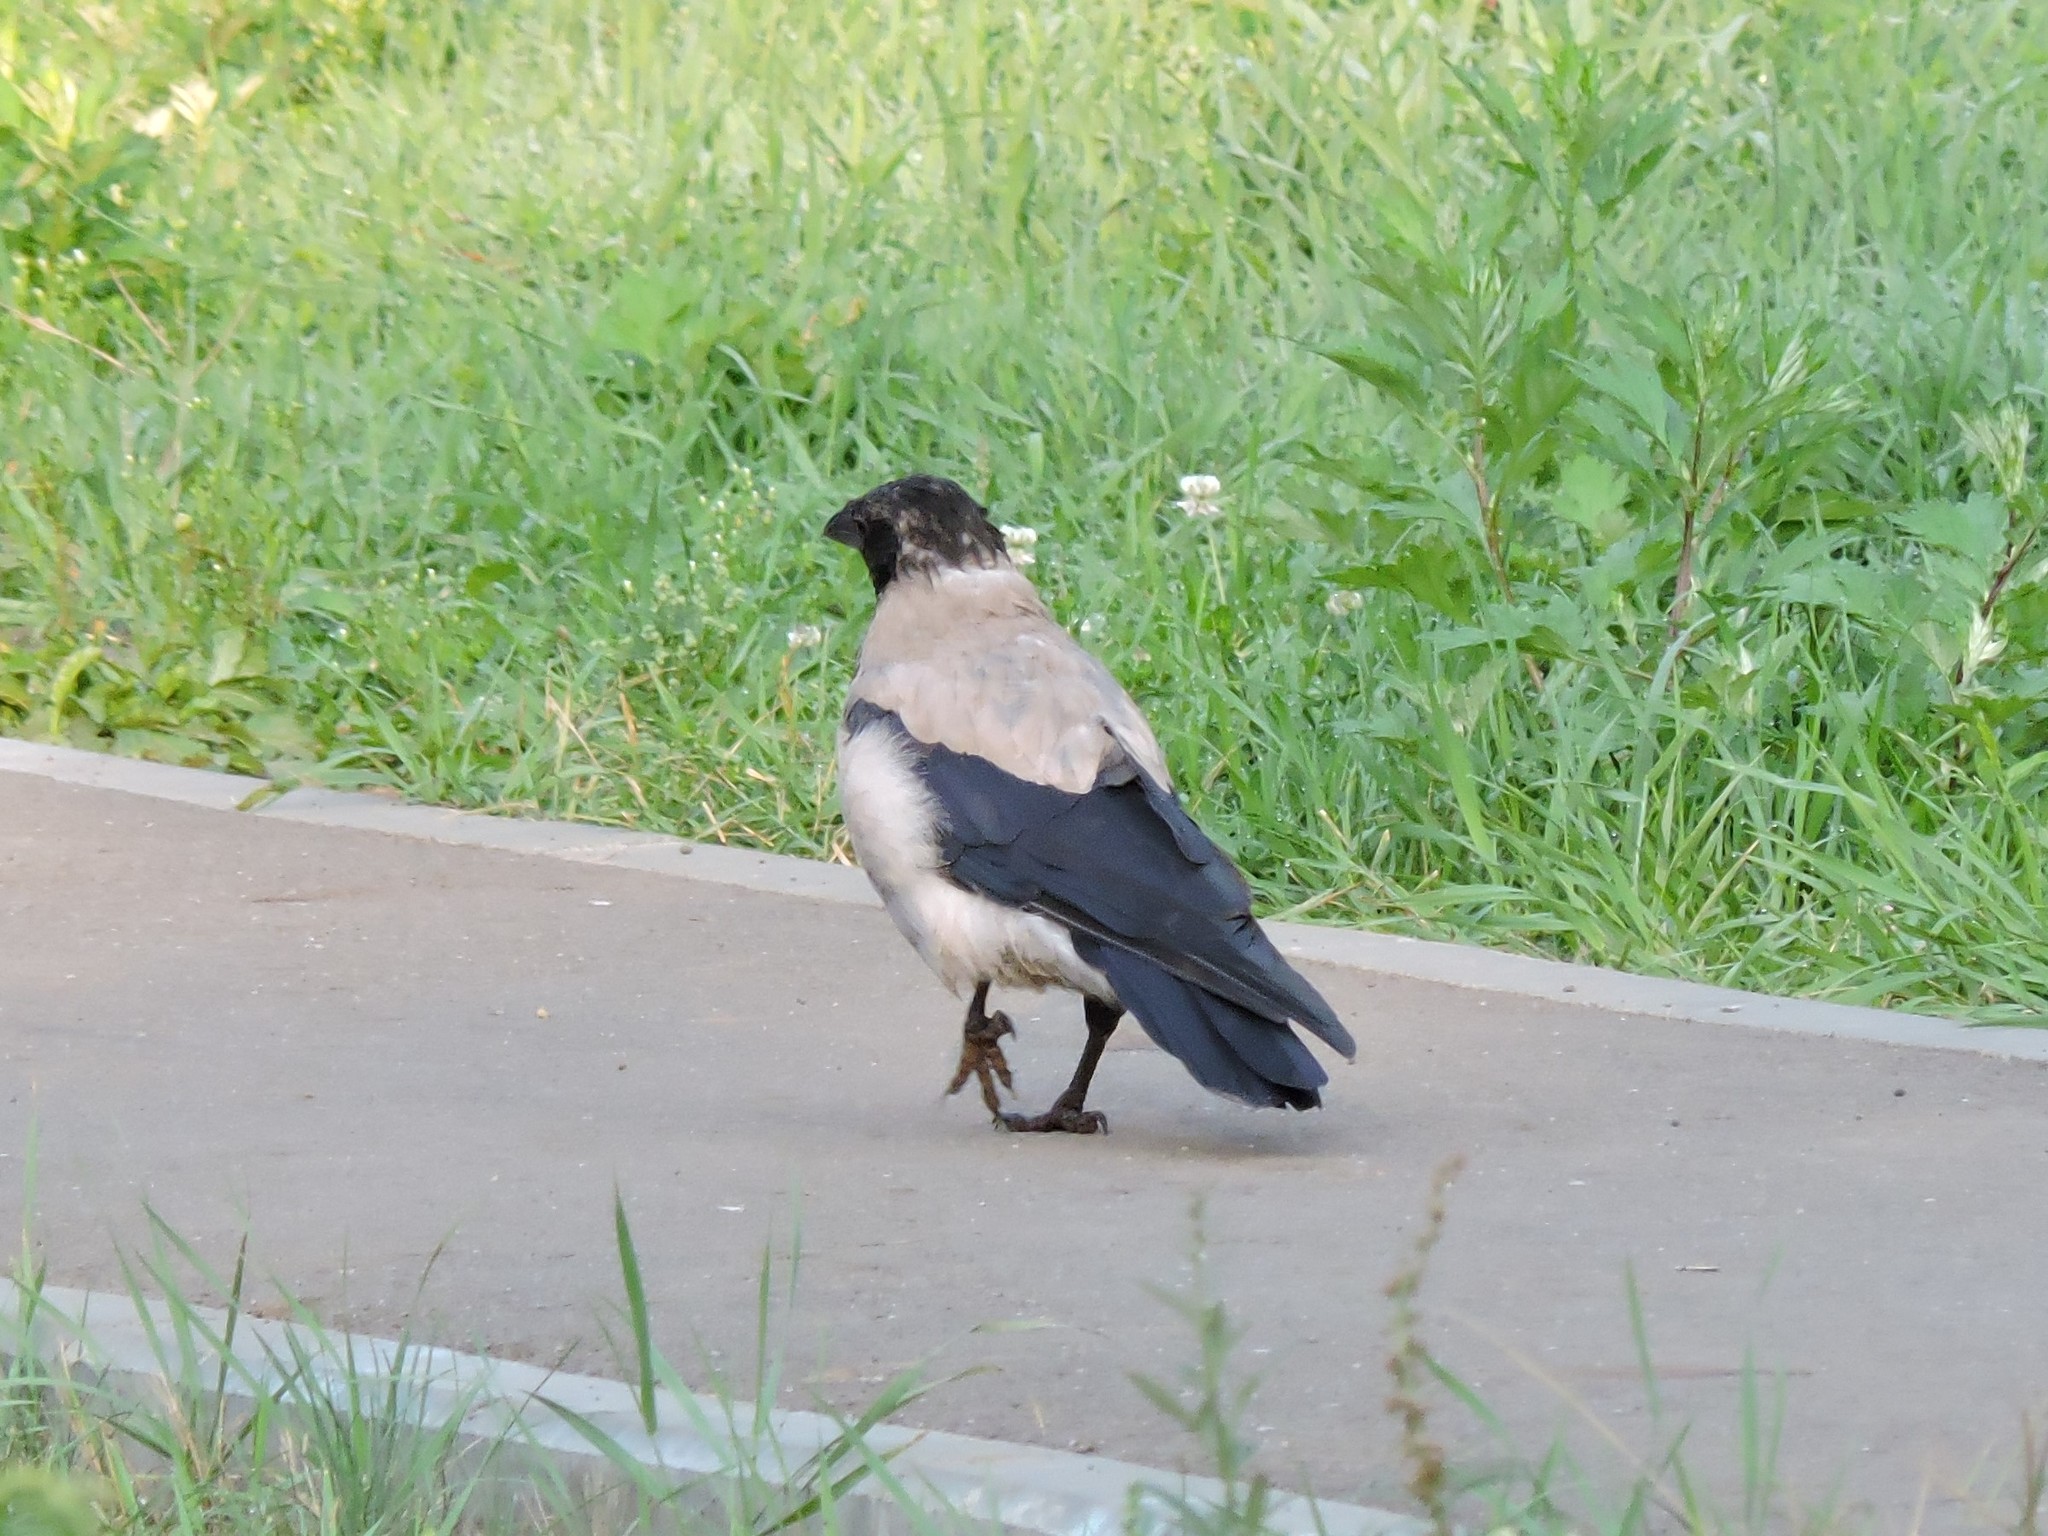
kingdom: Animalia
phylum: Chordata
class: Aves
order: Passeriformes
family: Corvidae
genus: Corvus
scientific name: Corvus cornix
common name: Hooded crow
